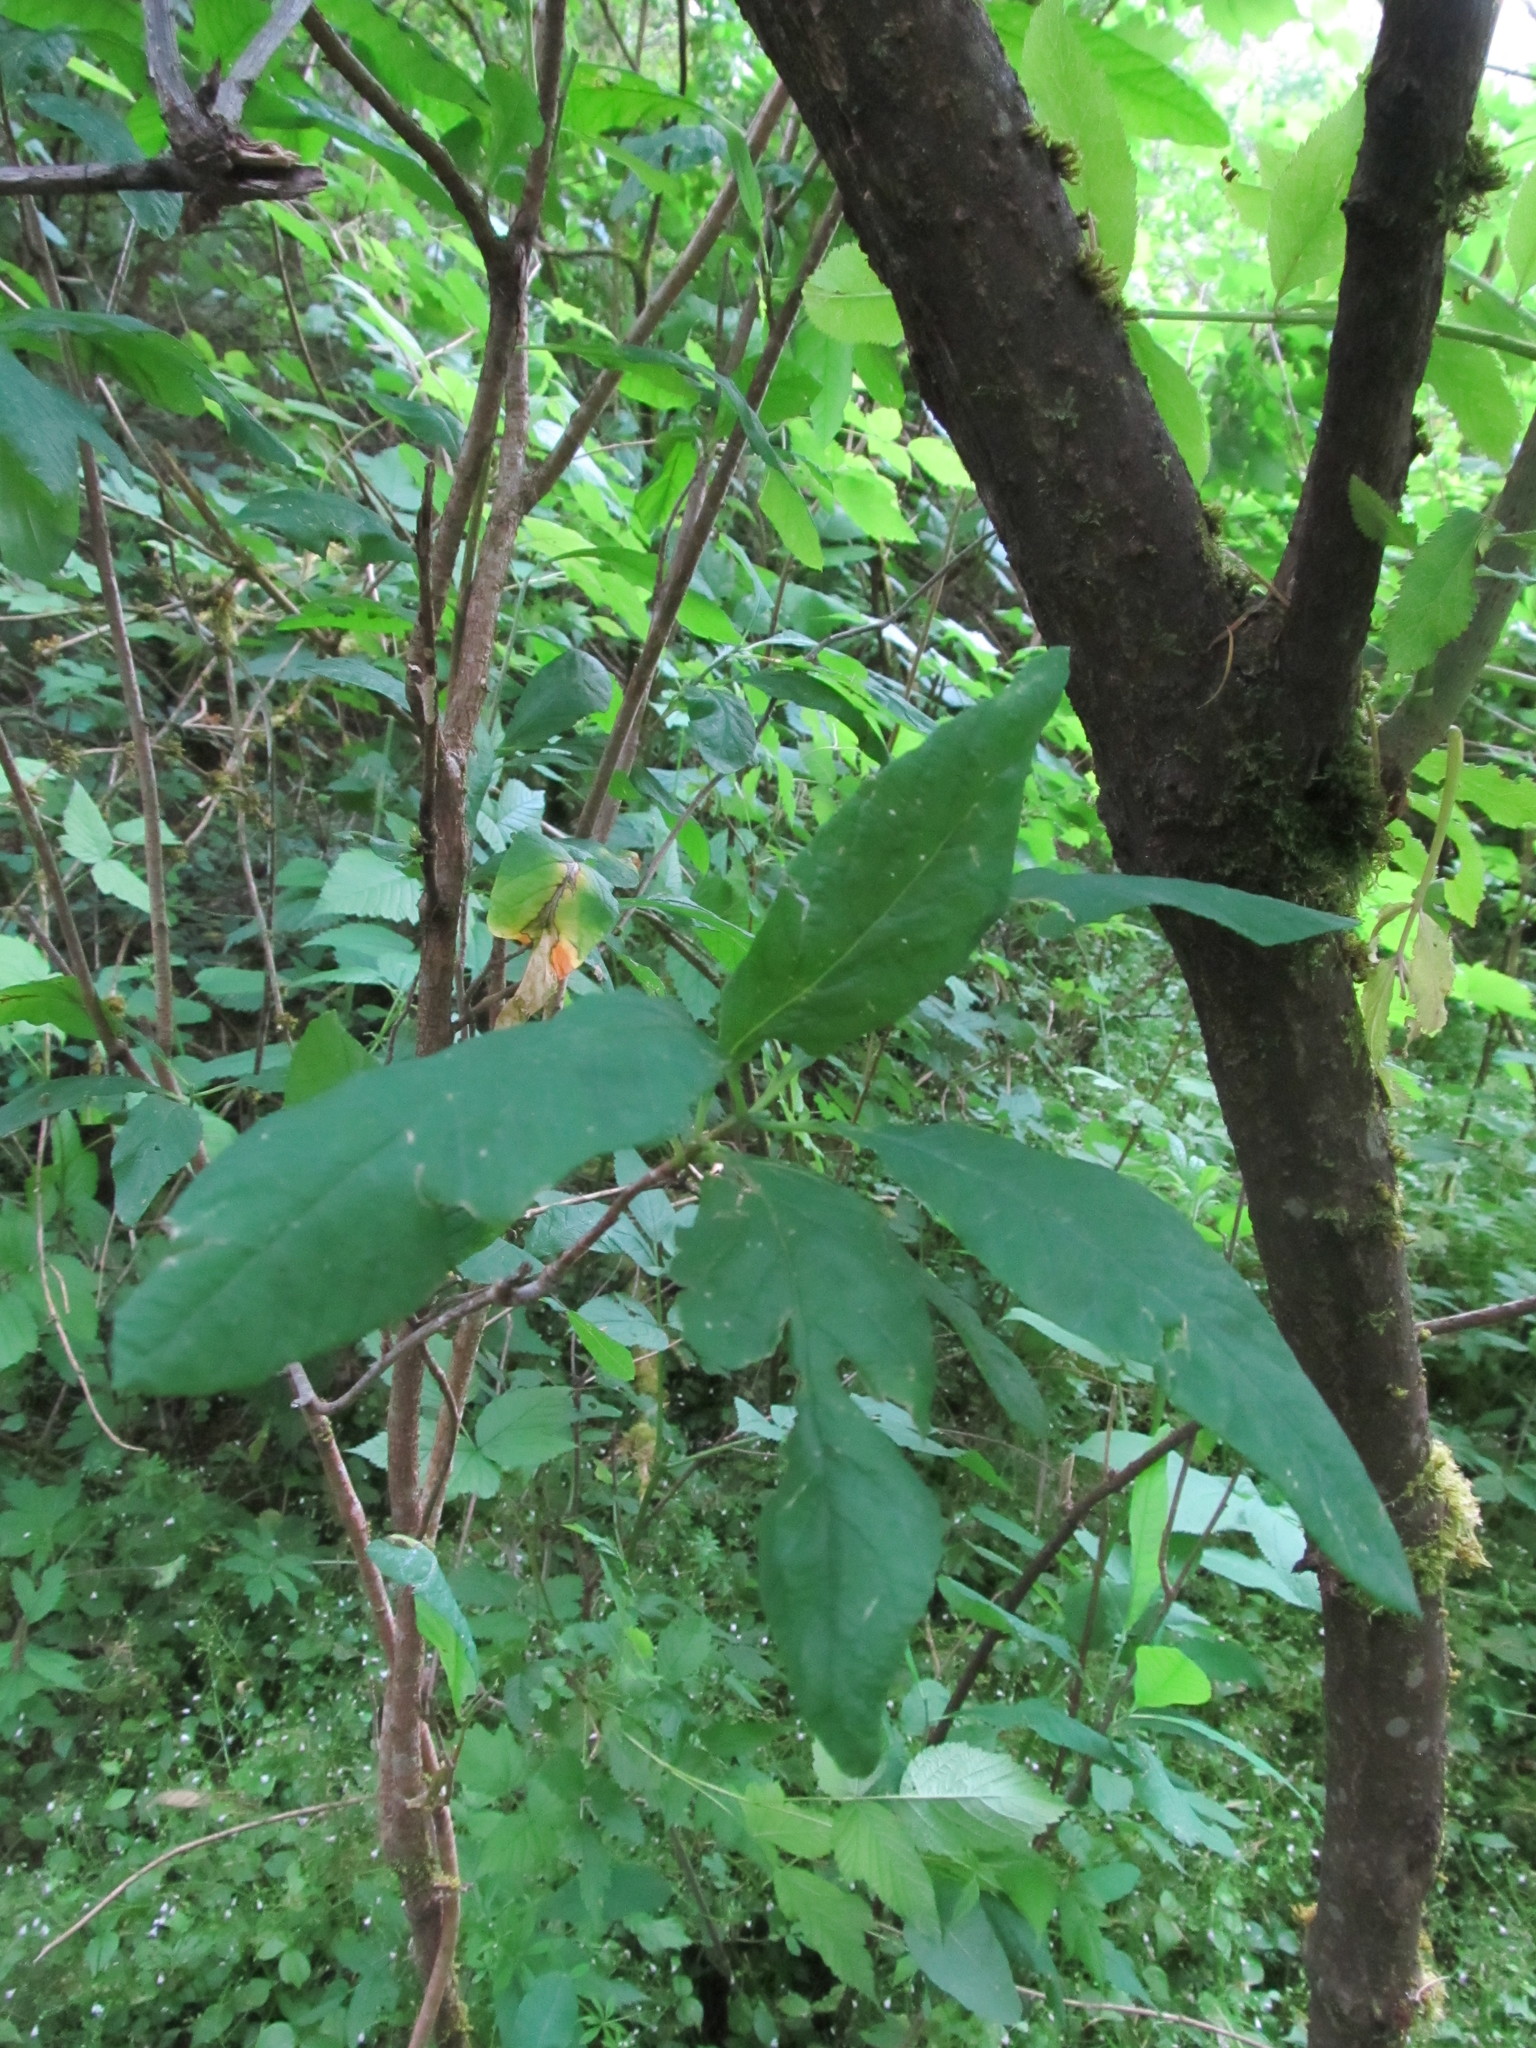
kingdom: Plantae
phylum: Tracheophyta
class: Magnoliopsida
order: Dipsacales
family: Viburnaceae
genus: Sambucus
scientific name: Sambucus racemosa
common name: Red-berried elder
